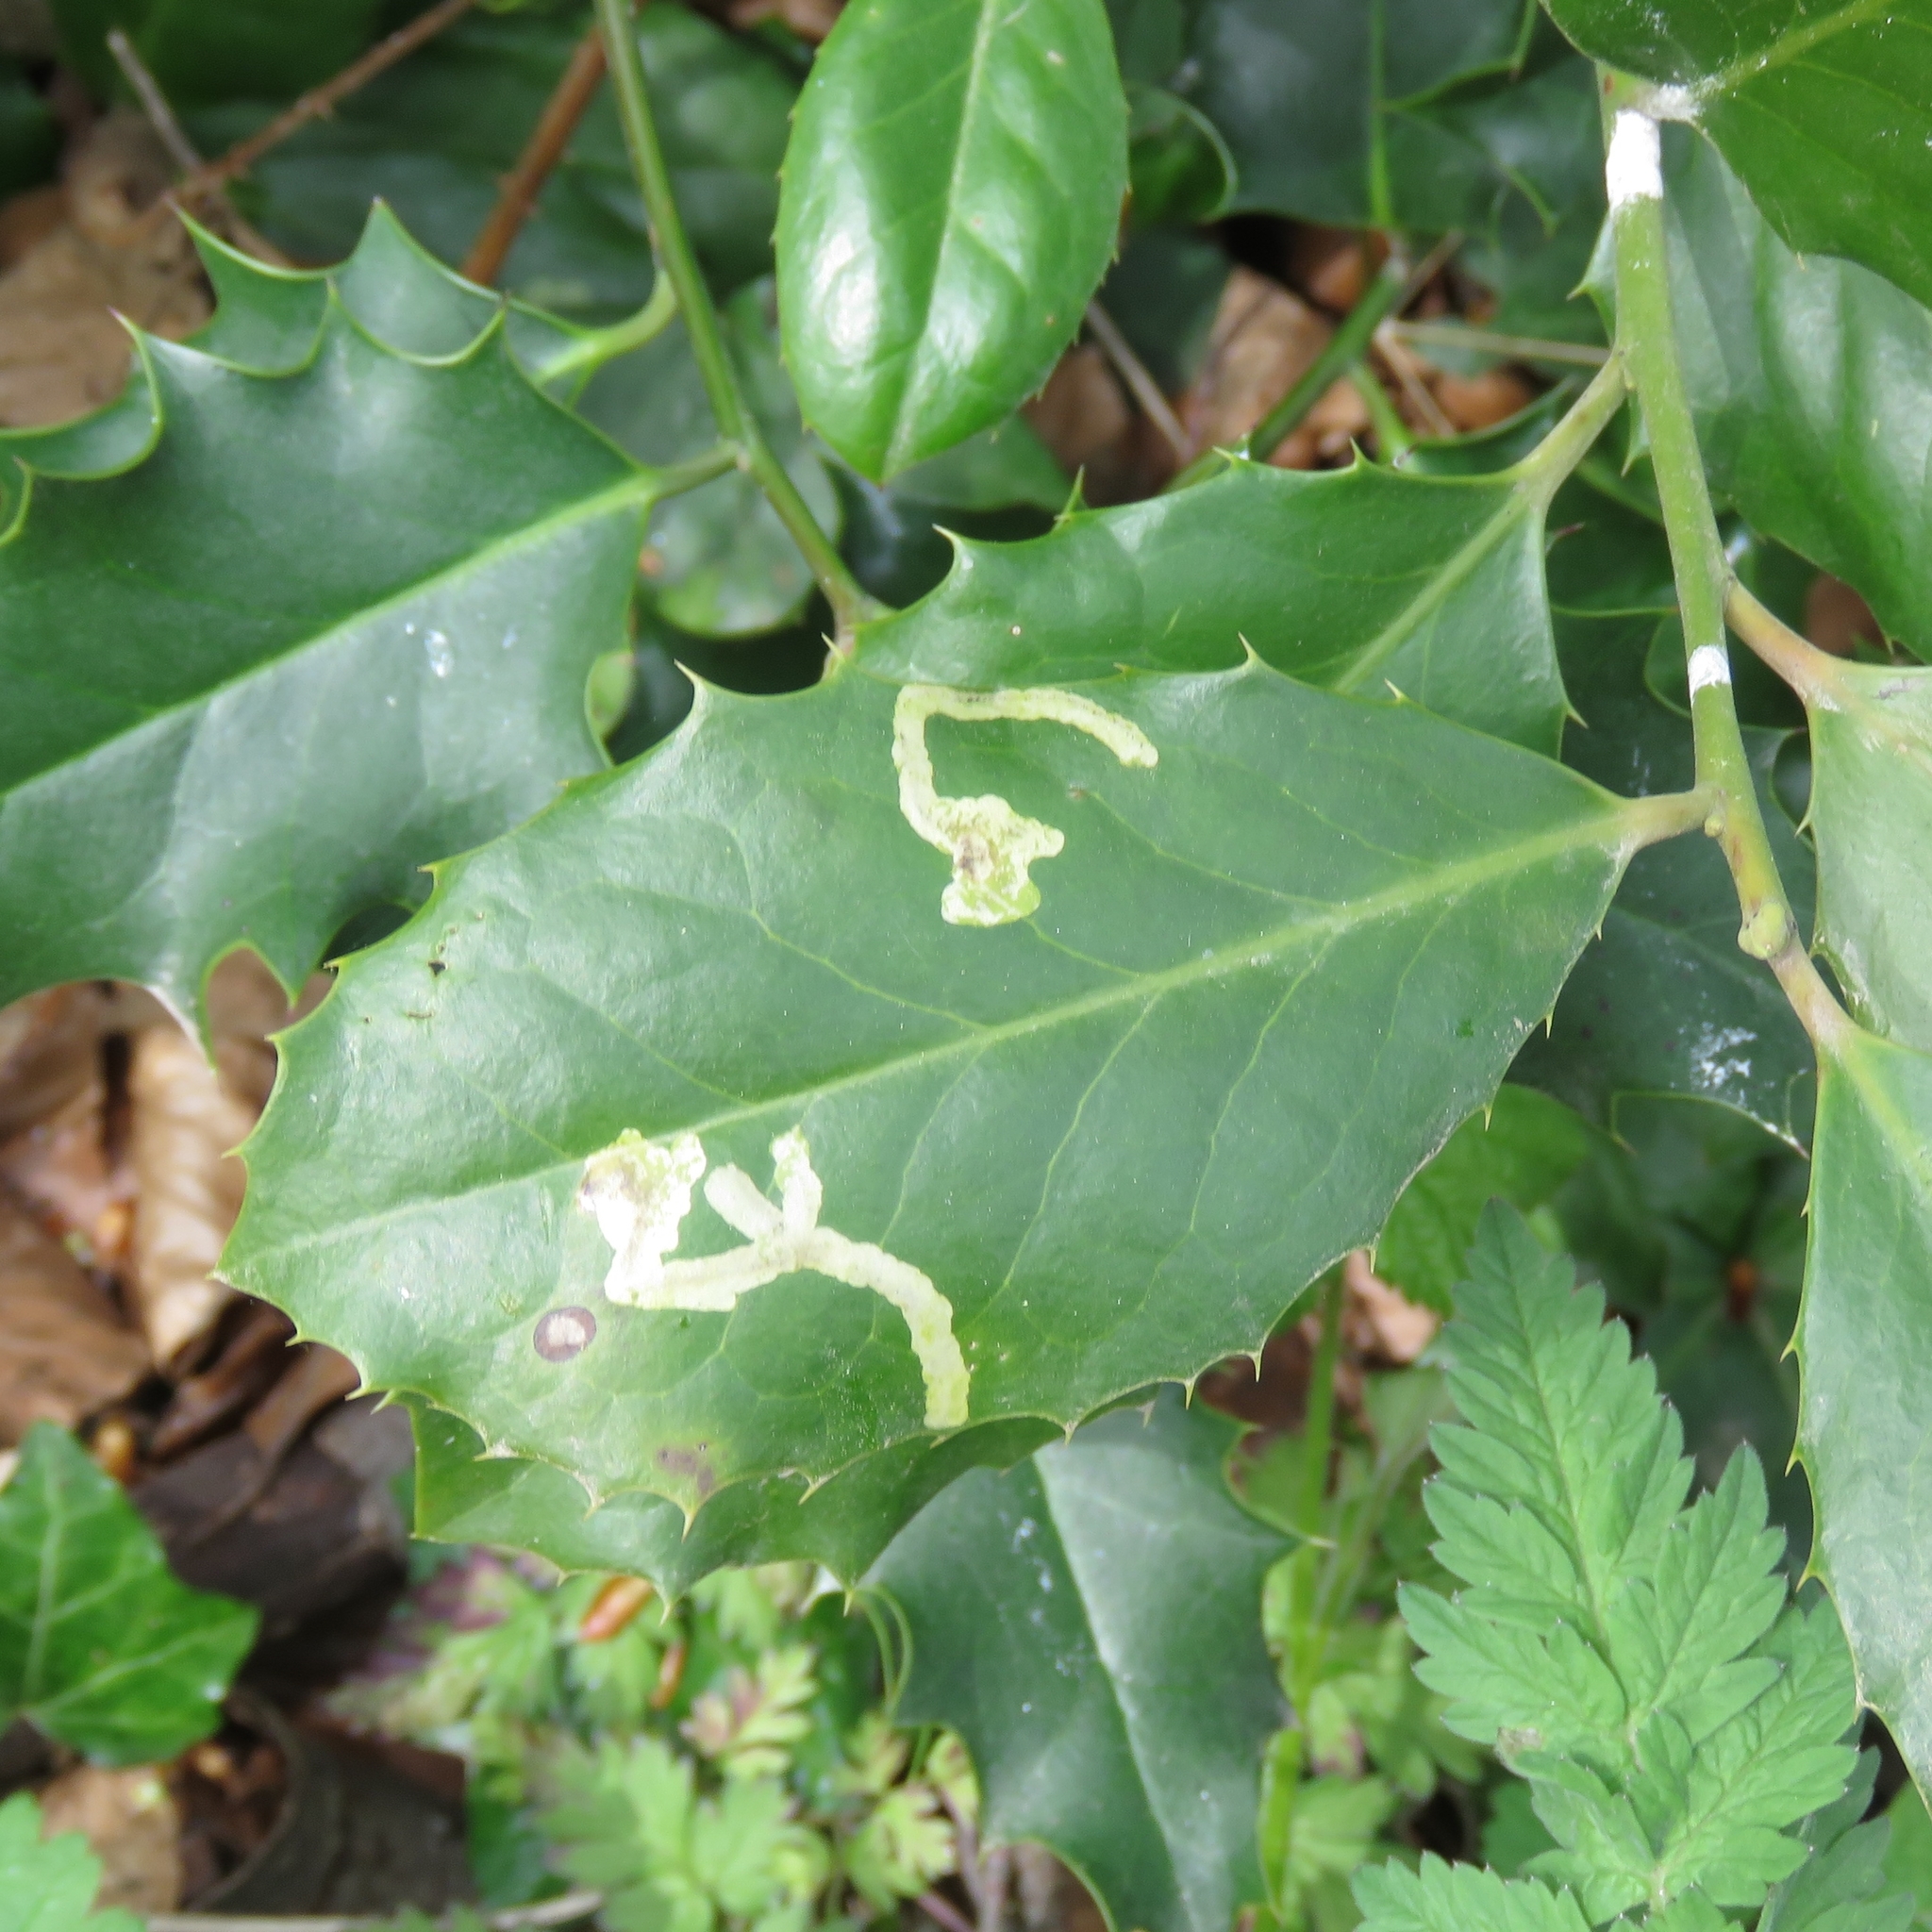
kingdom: Animalia
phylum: Arthropoda
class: Insecta
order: Diptera
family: Agromyzidae
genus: Phytomyza
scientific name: Phytomyza ilicis
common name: Holly leafminer
